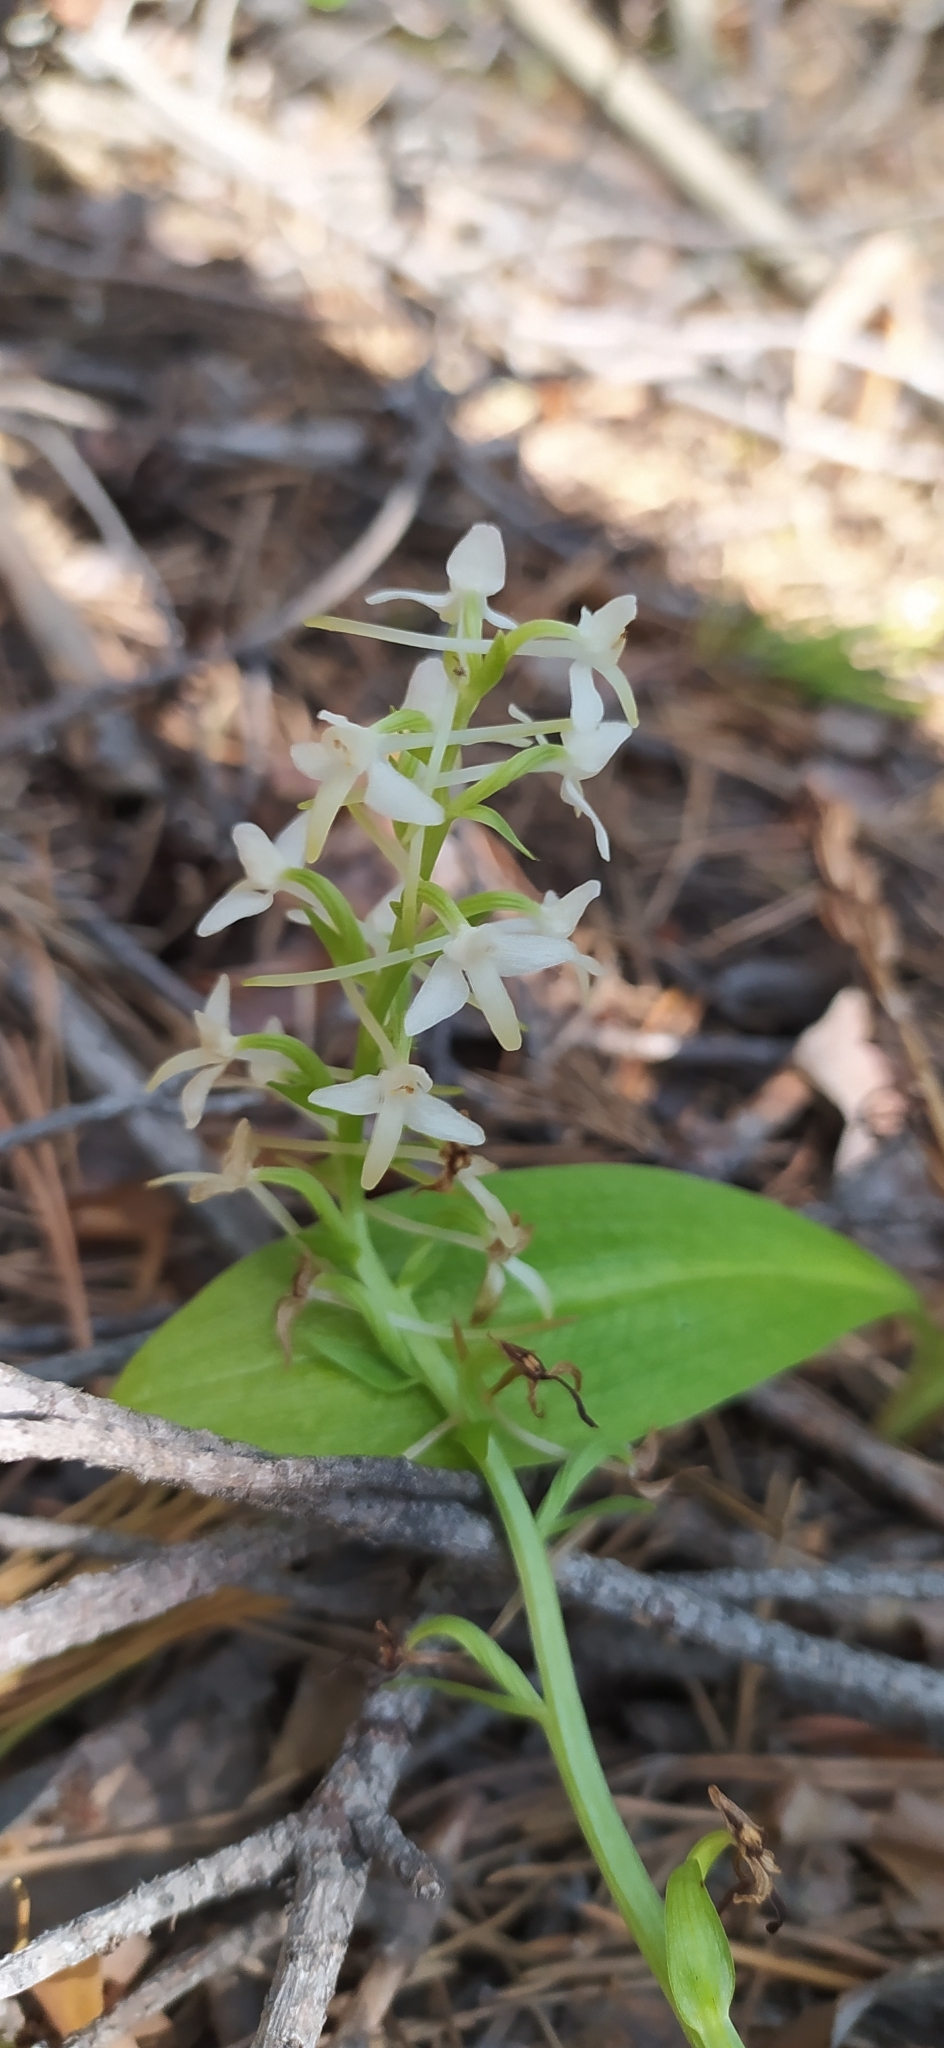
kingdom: Plantae
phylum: Tracheophyta
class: Liliopsida
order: Asparagales
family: Orchidaceae
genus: Platanthera
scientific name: Platanthera bifolia
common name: Lesser butterfly-orchid
